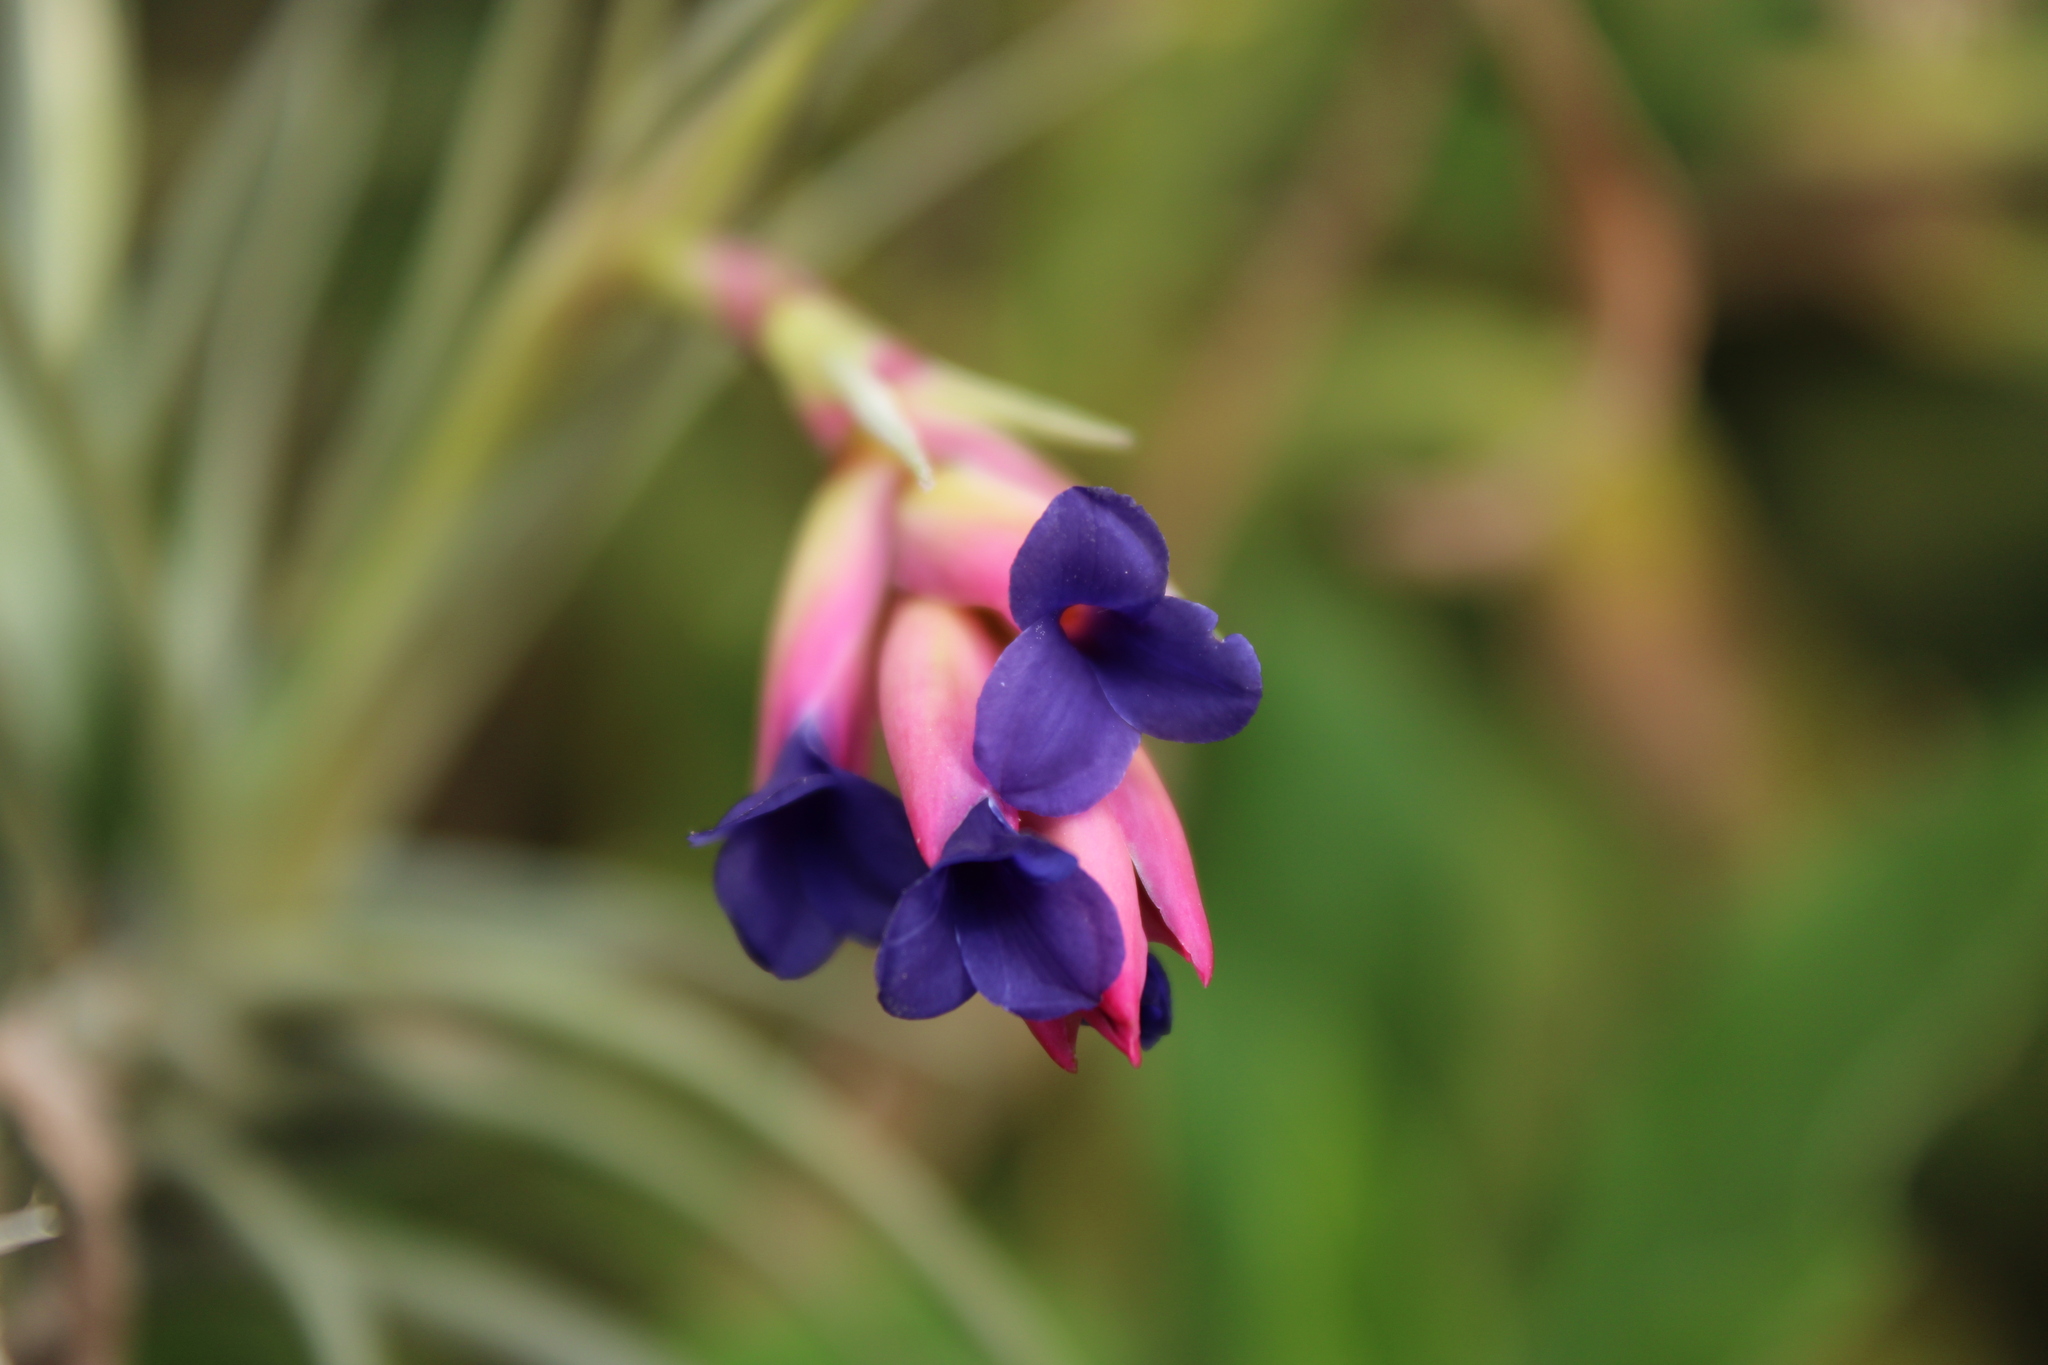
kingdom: Plantae
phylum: Tracheophyta
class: Liliopsida
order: Poales
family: Bromeliaceae
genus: Tillandsia
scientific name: Tillandsia aeranthos
